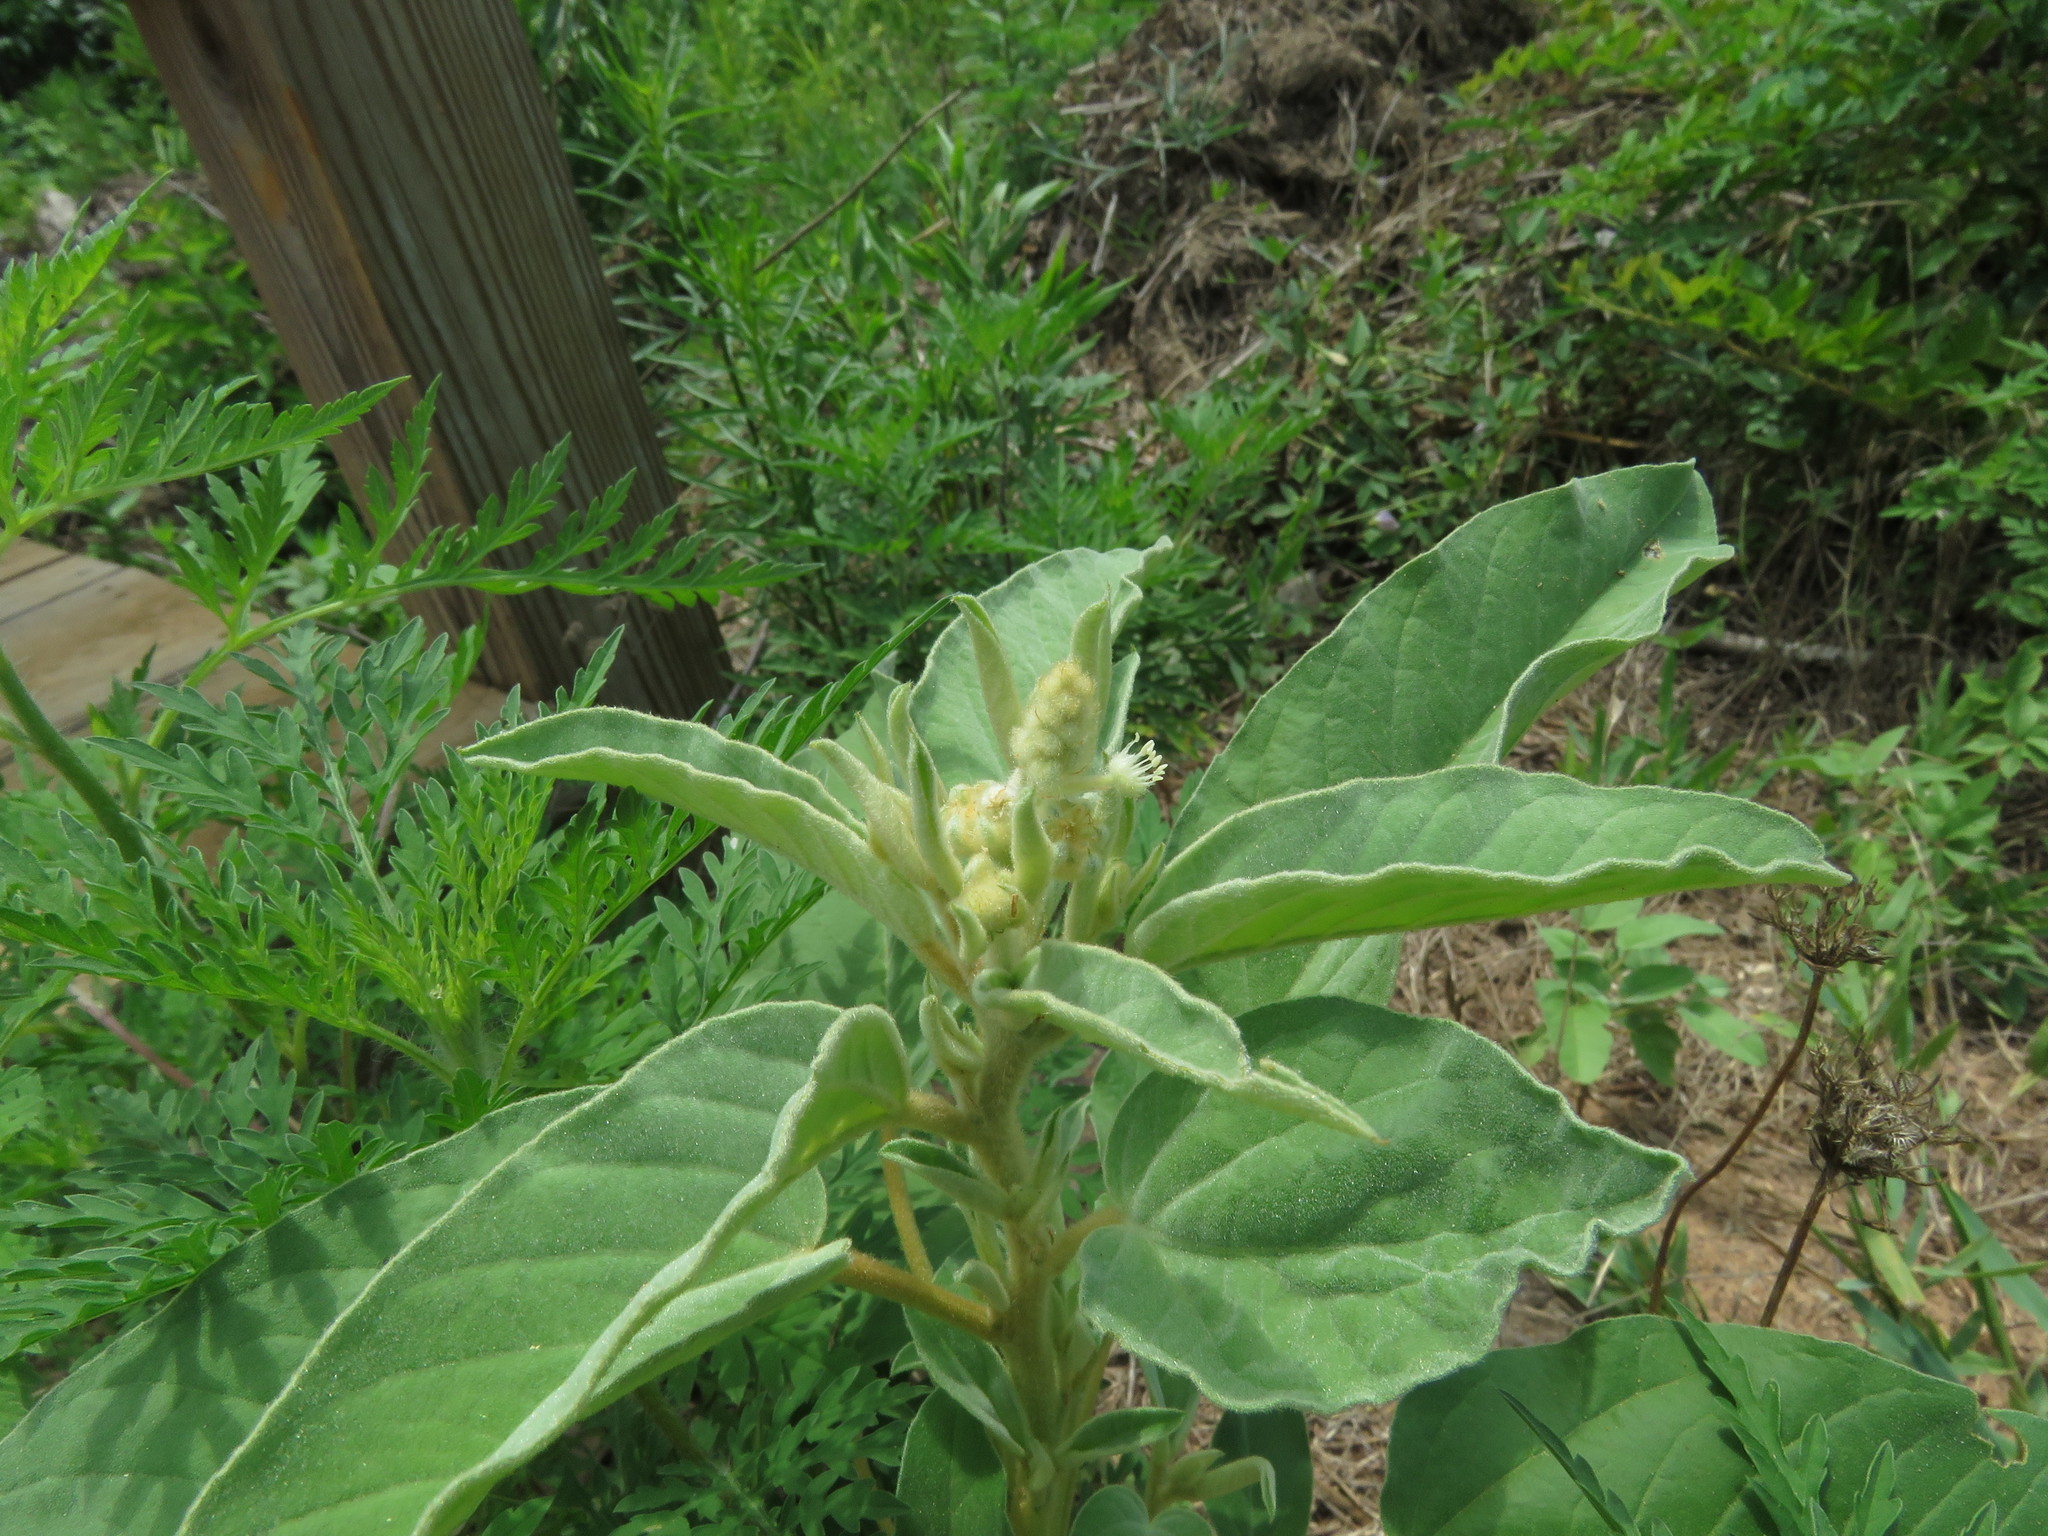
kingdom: Plantae
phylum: Tracheophyta
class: Magnoliopsida
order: Malpighiales
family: Euphorbiaceae
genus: Croton
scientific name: Croton lindheimeri
